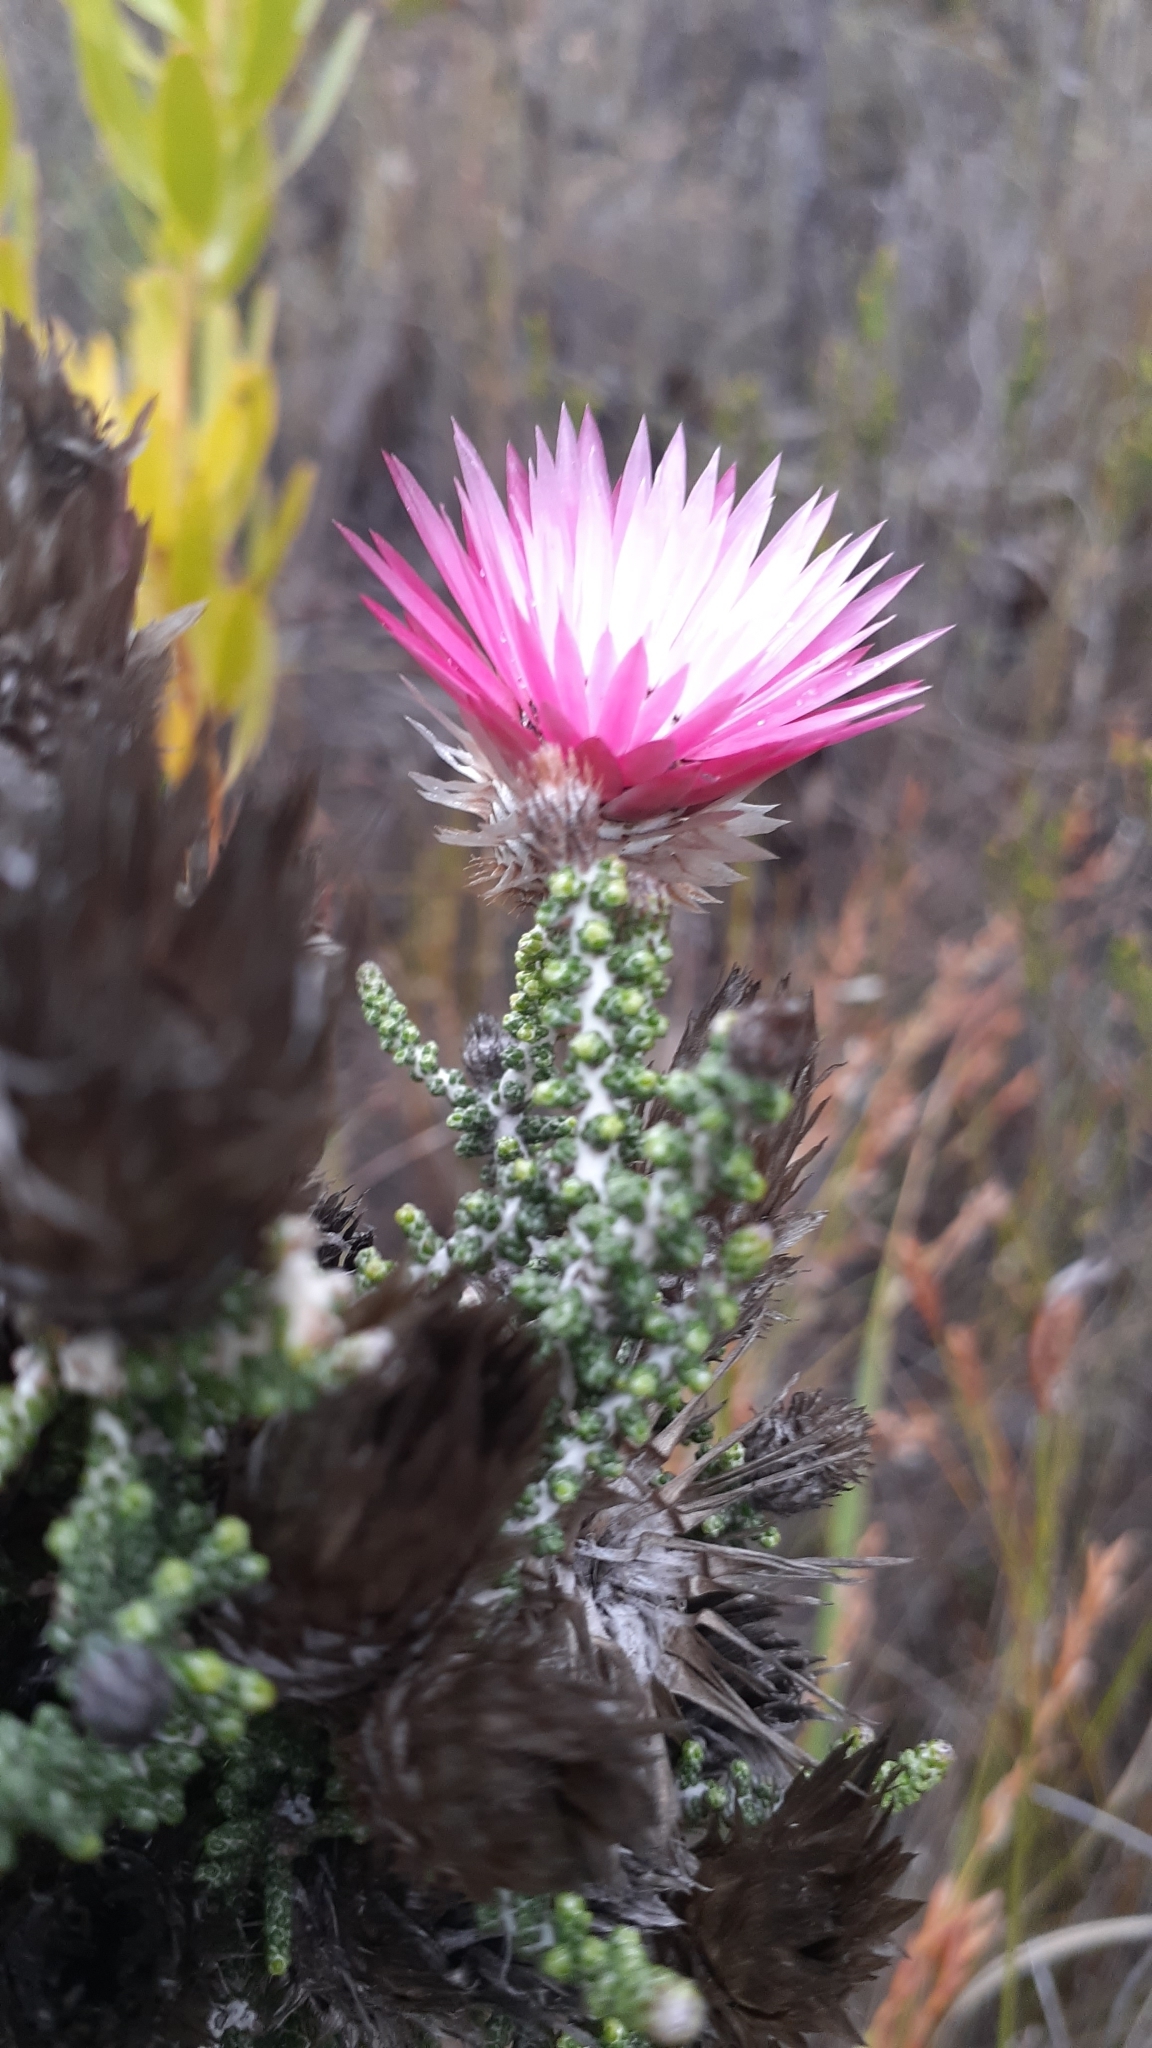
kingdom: Plantae
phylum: Tracheophyta
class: Magnoliopsida
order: Asterales
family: Asteraceae
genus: Phaenocoma
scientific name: Phaenocoma prolifera
